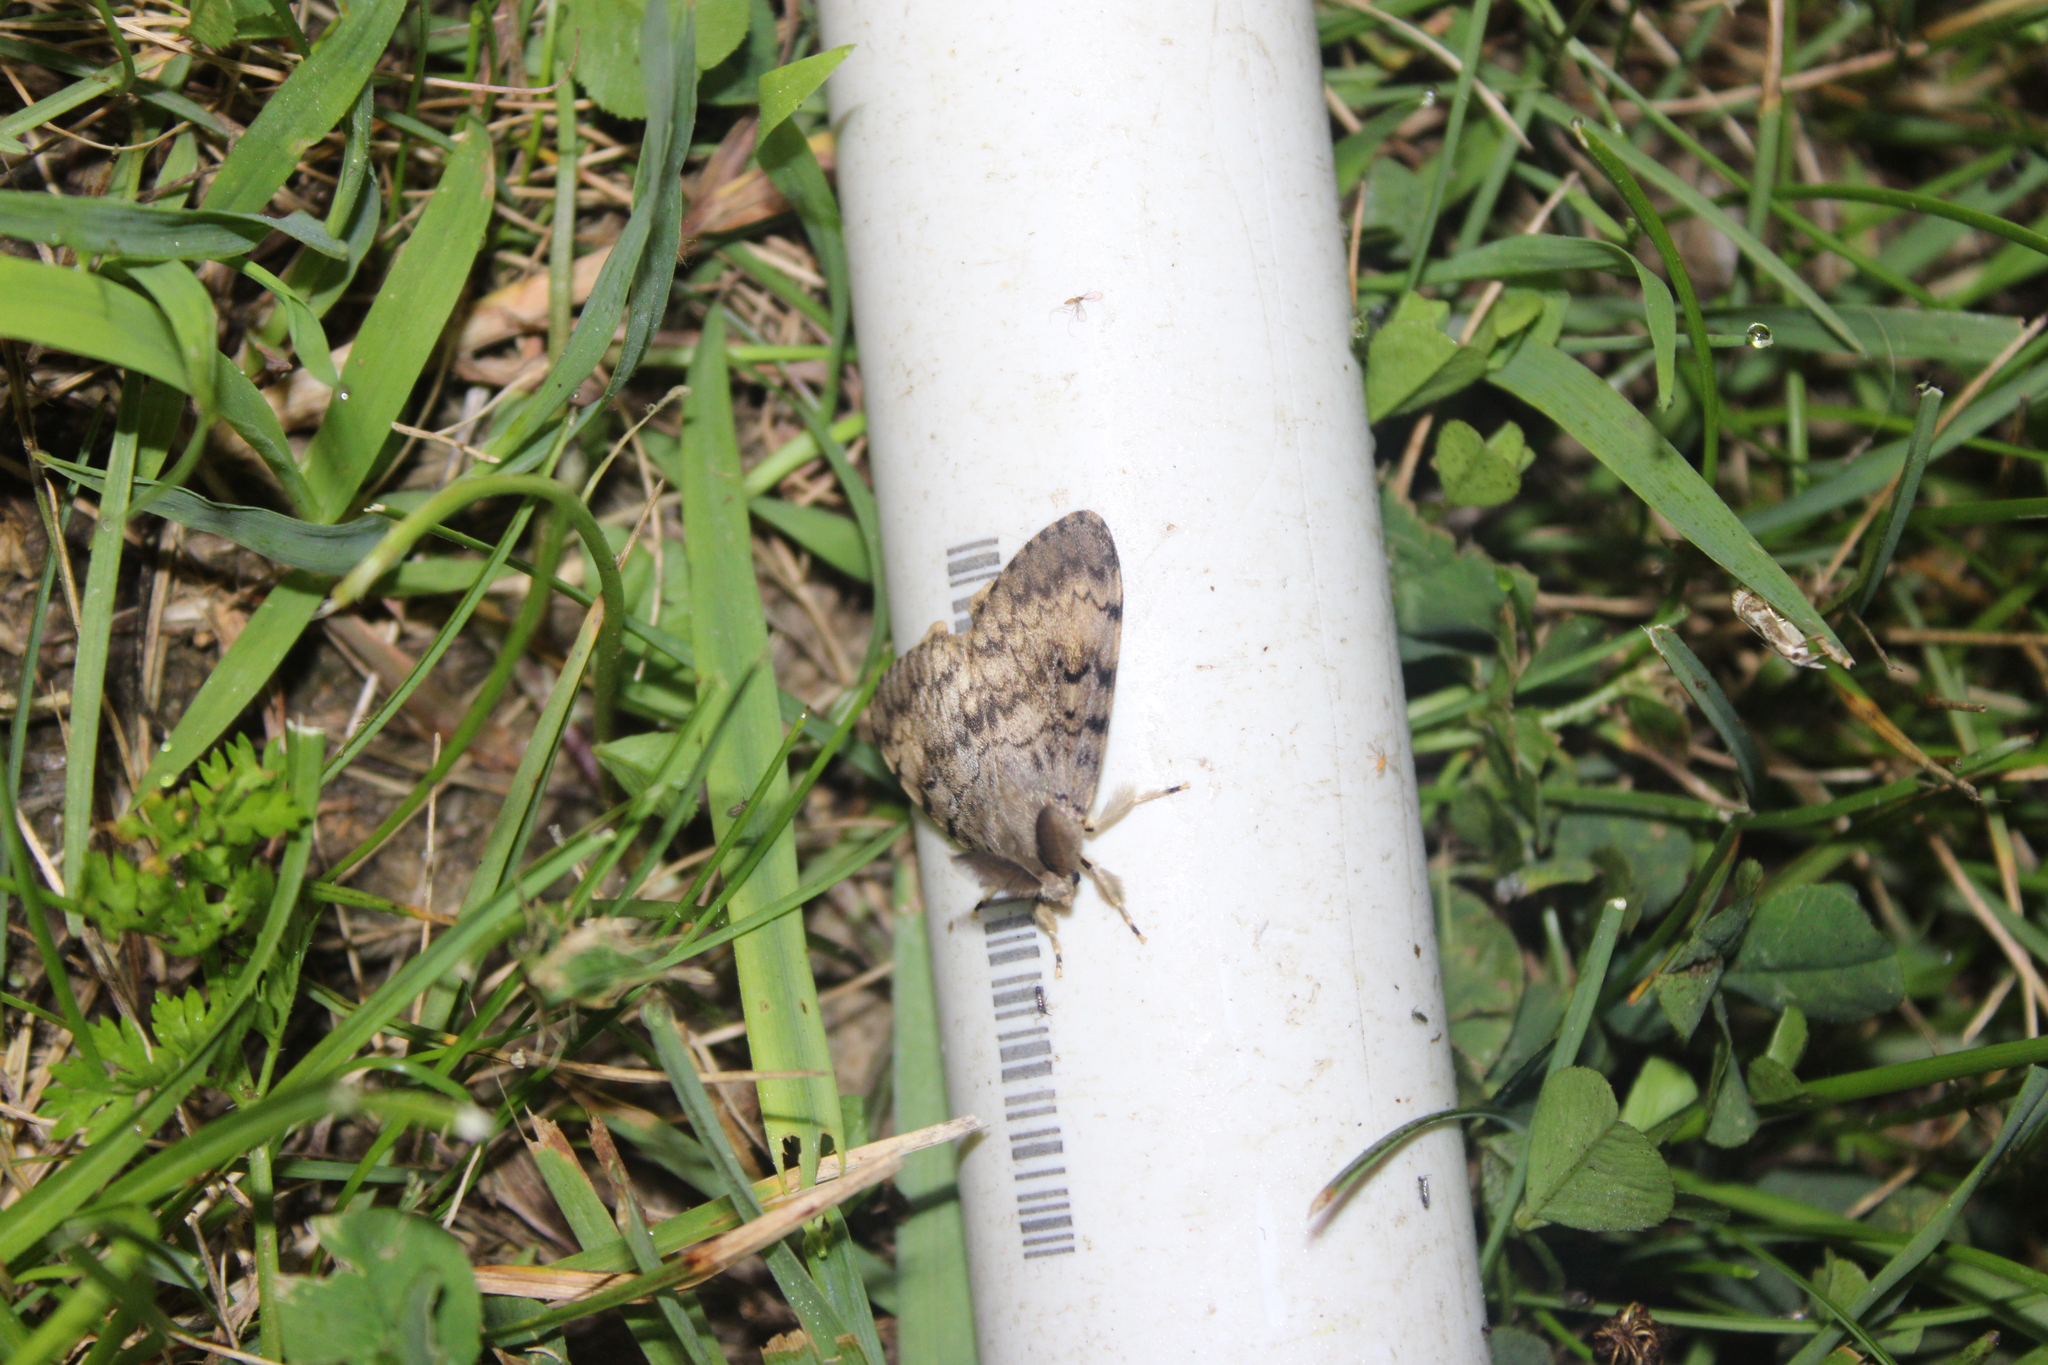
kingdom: Animalia
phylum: Arthropoda
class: Insecta
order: Lepidoptera
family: Erebidae
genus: Lymantria
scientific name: Lymantria dispar
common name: Gypsy moth
